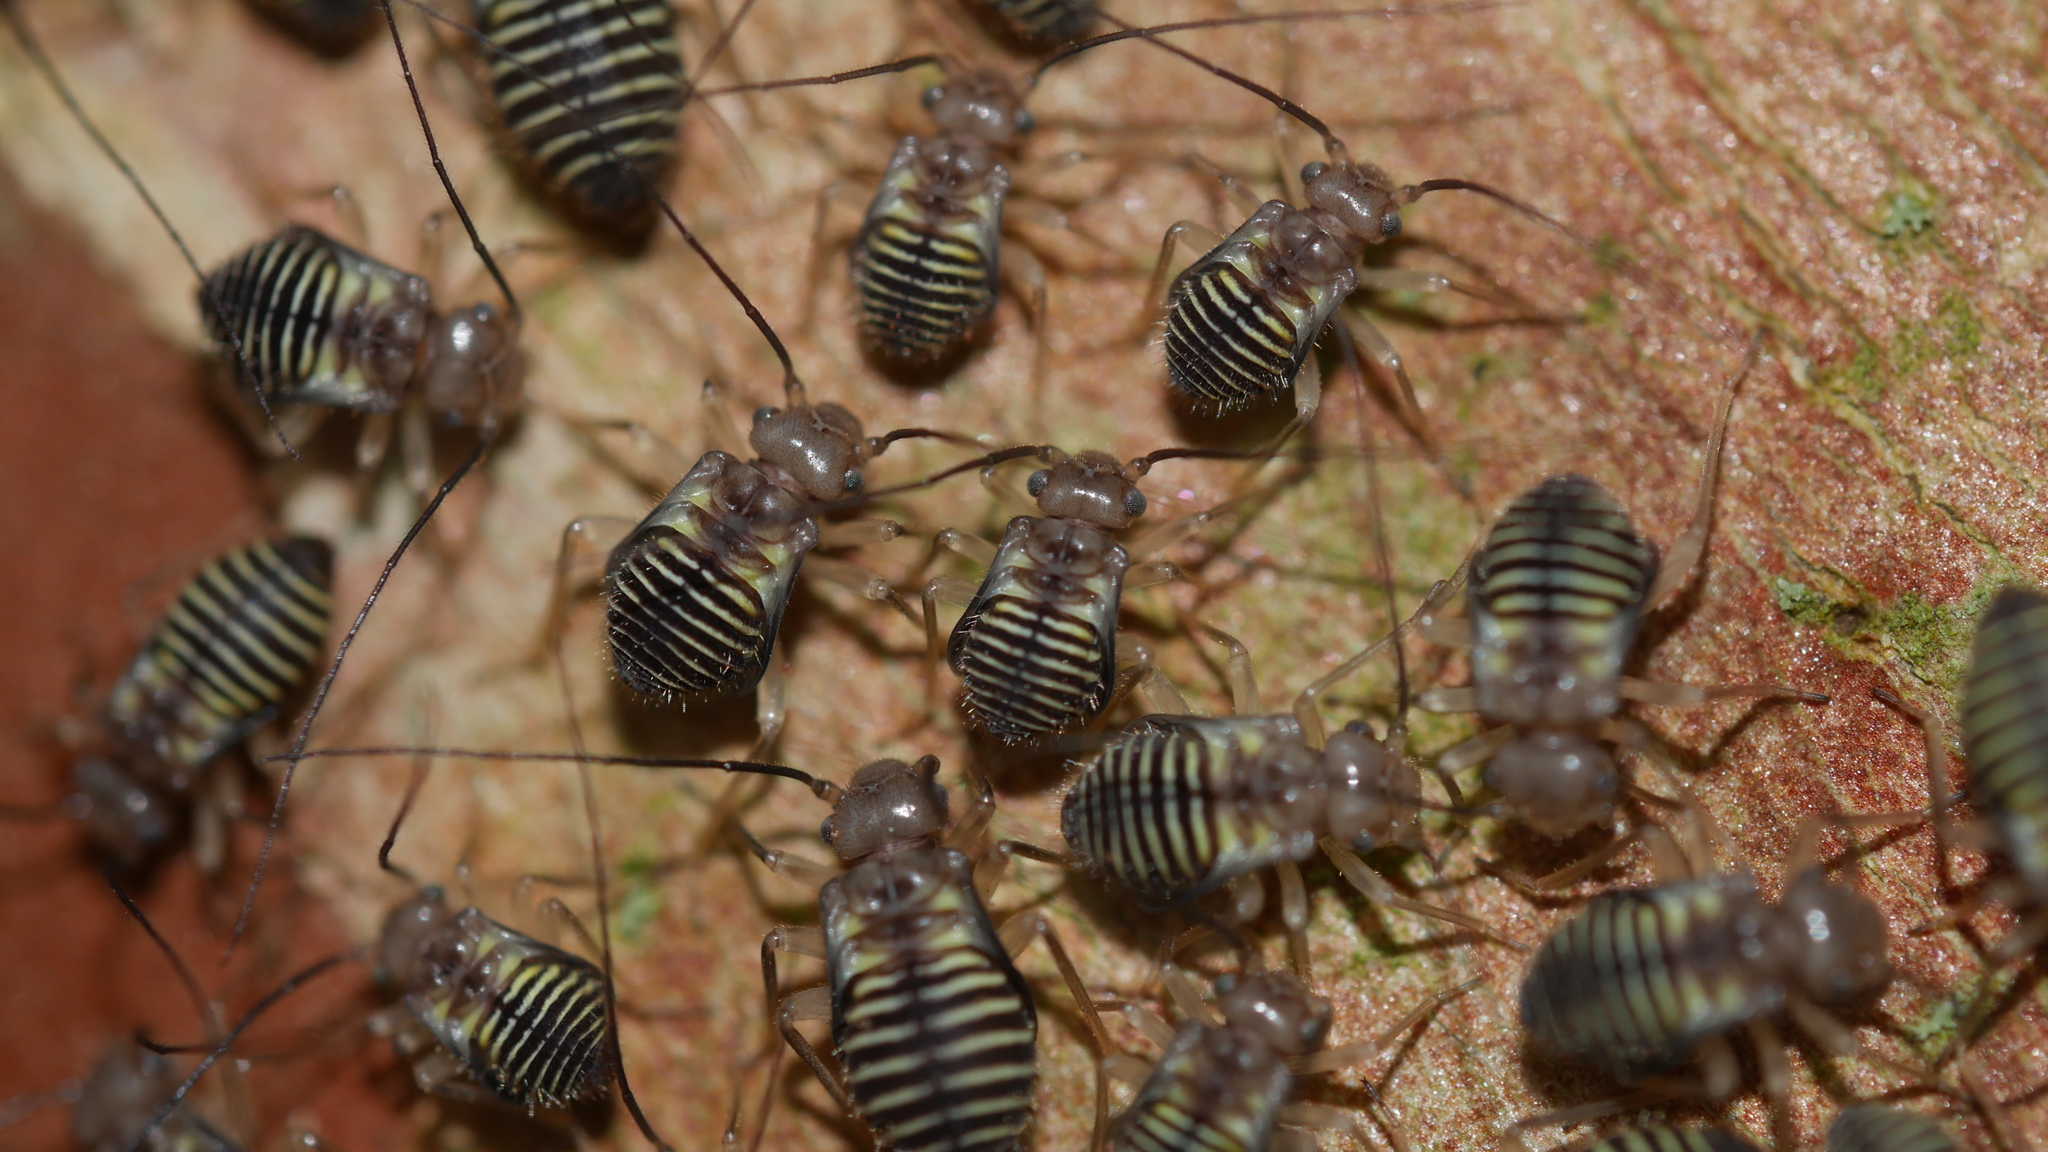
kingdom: Animalia
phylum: Arthropoda
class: Insecta
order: Psocodea
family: Psocidae
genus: Cerastipsocus
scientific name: Cerastipsocus venosus
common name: Tree cattle
